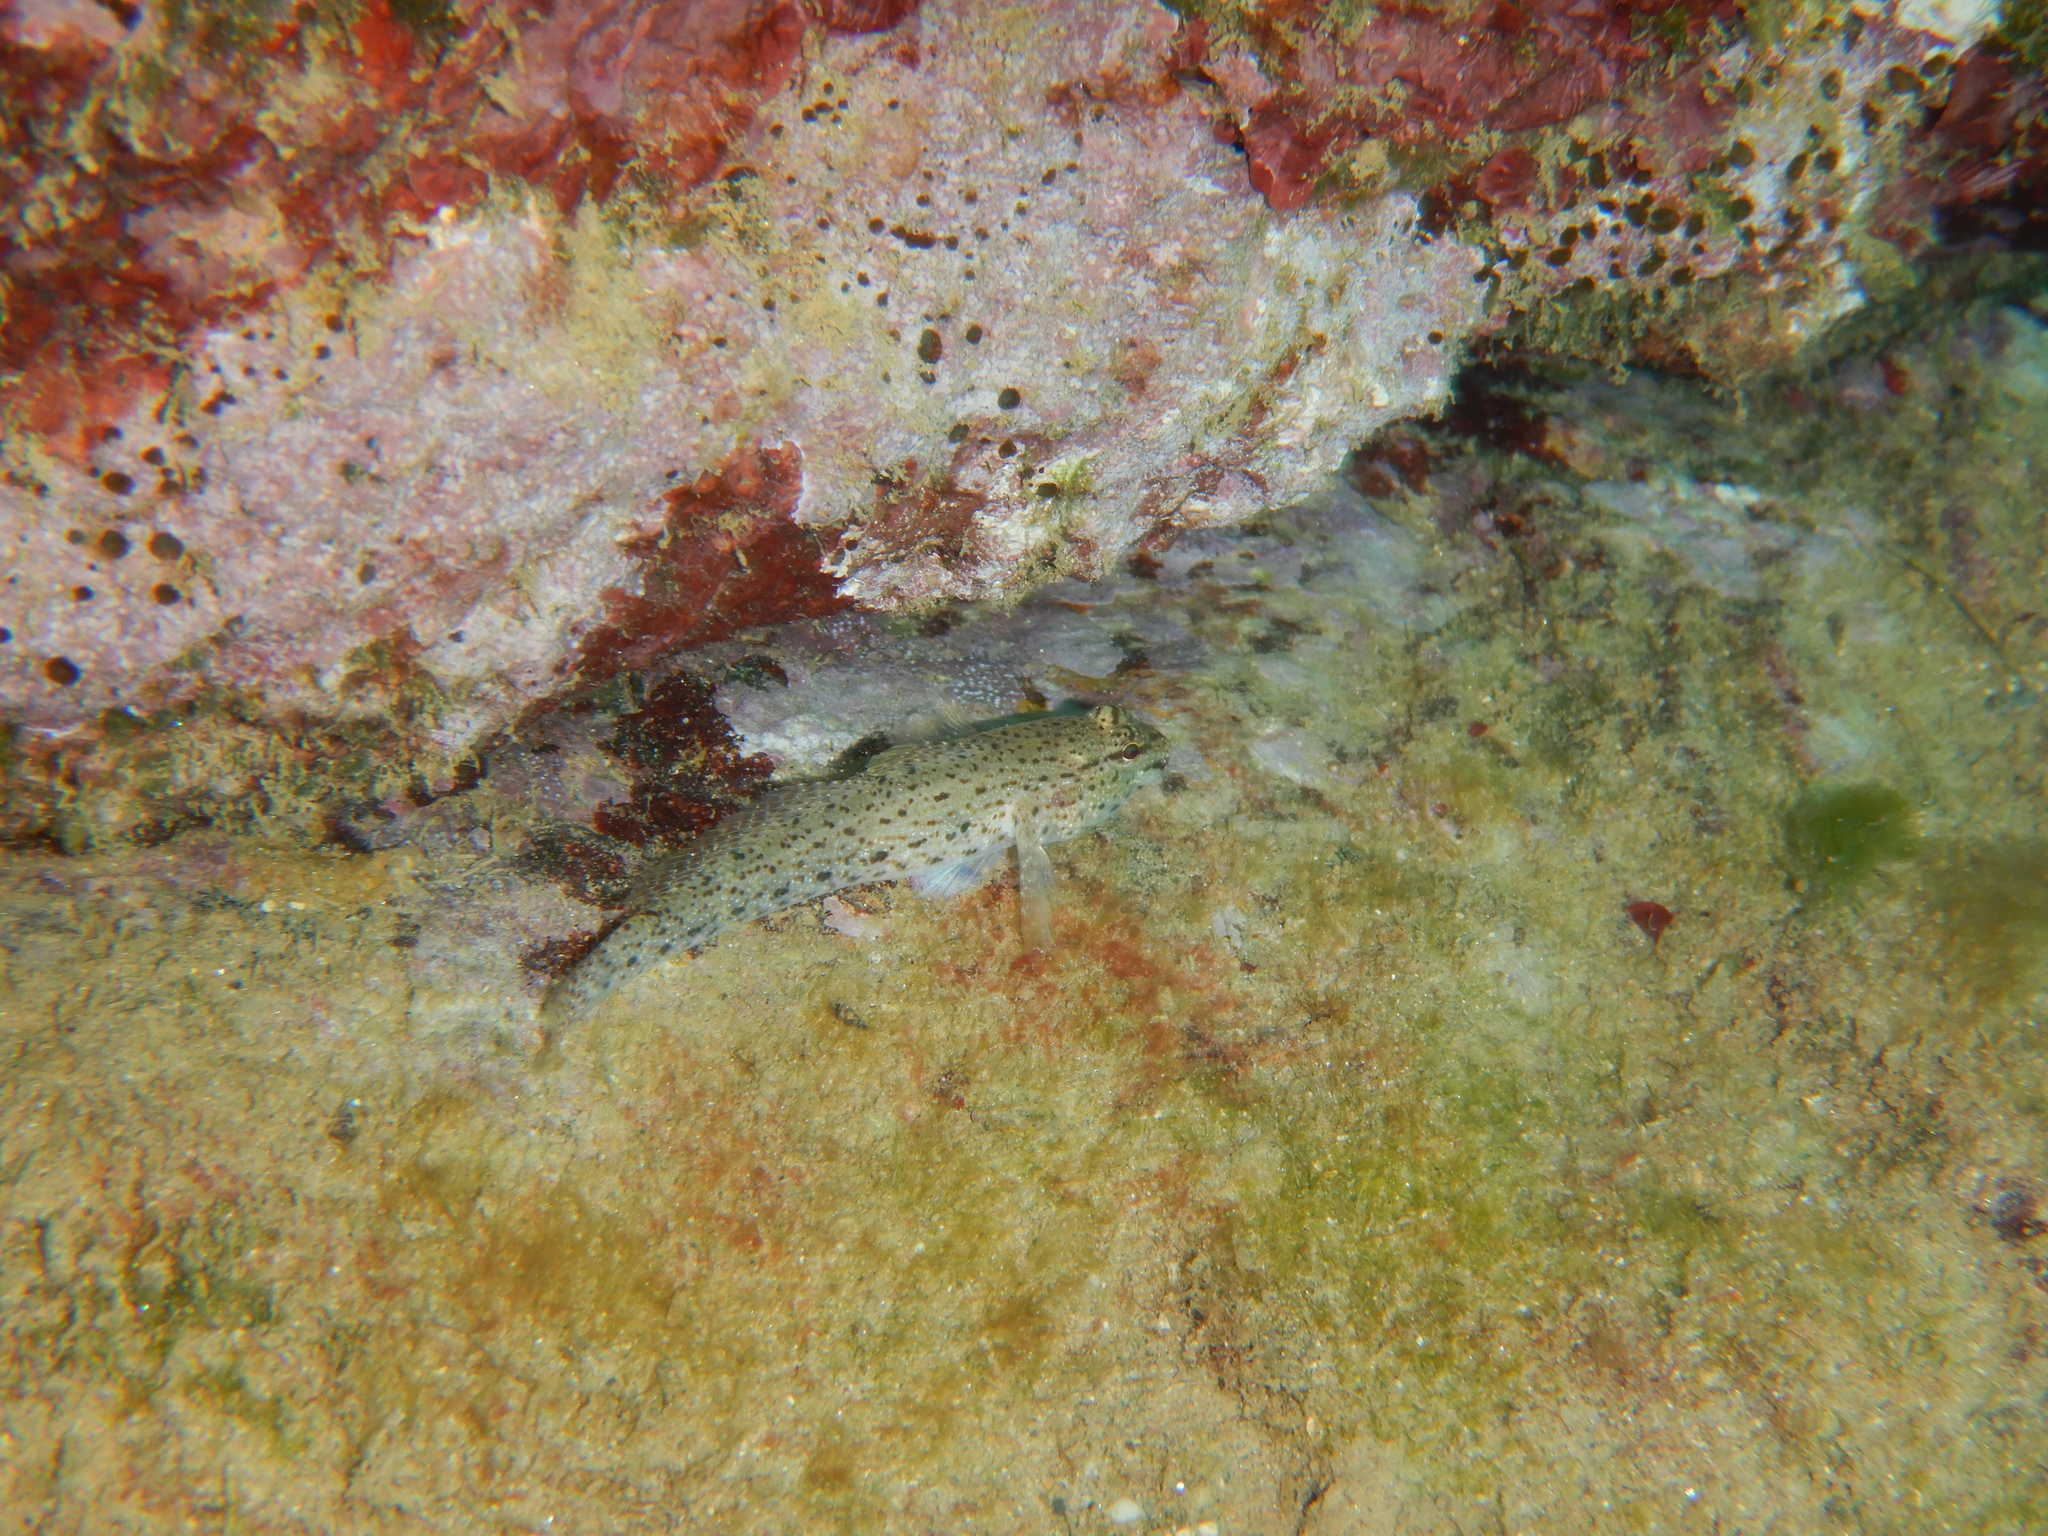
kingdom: Animalia
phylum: Chordata
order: Perciformes
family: Gobiidae
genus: Gobius
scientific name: Gobius incognitus
